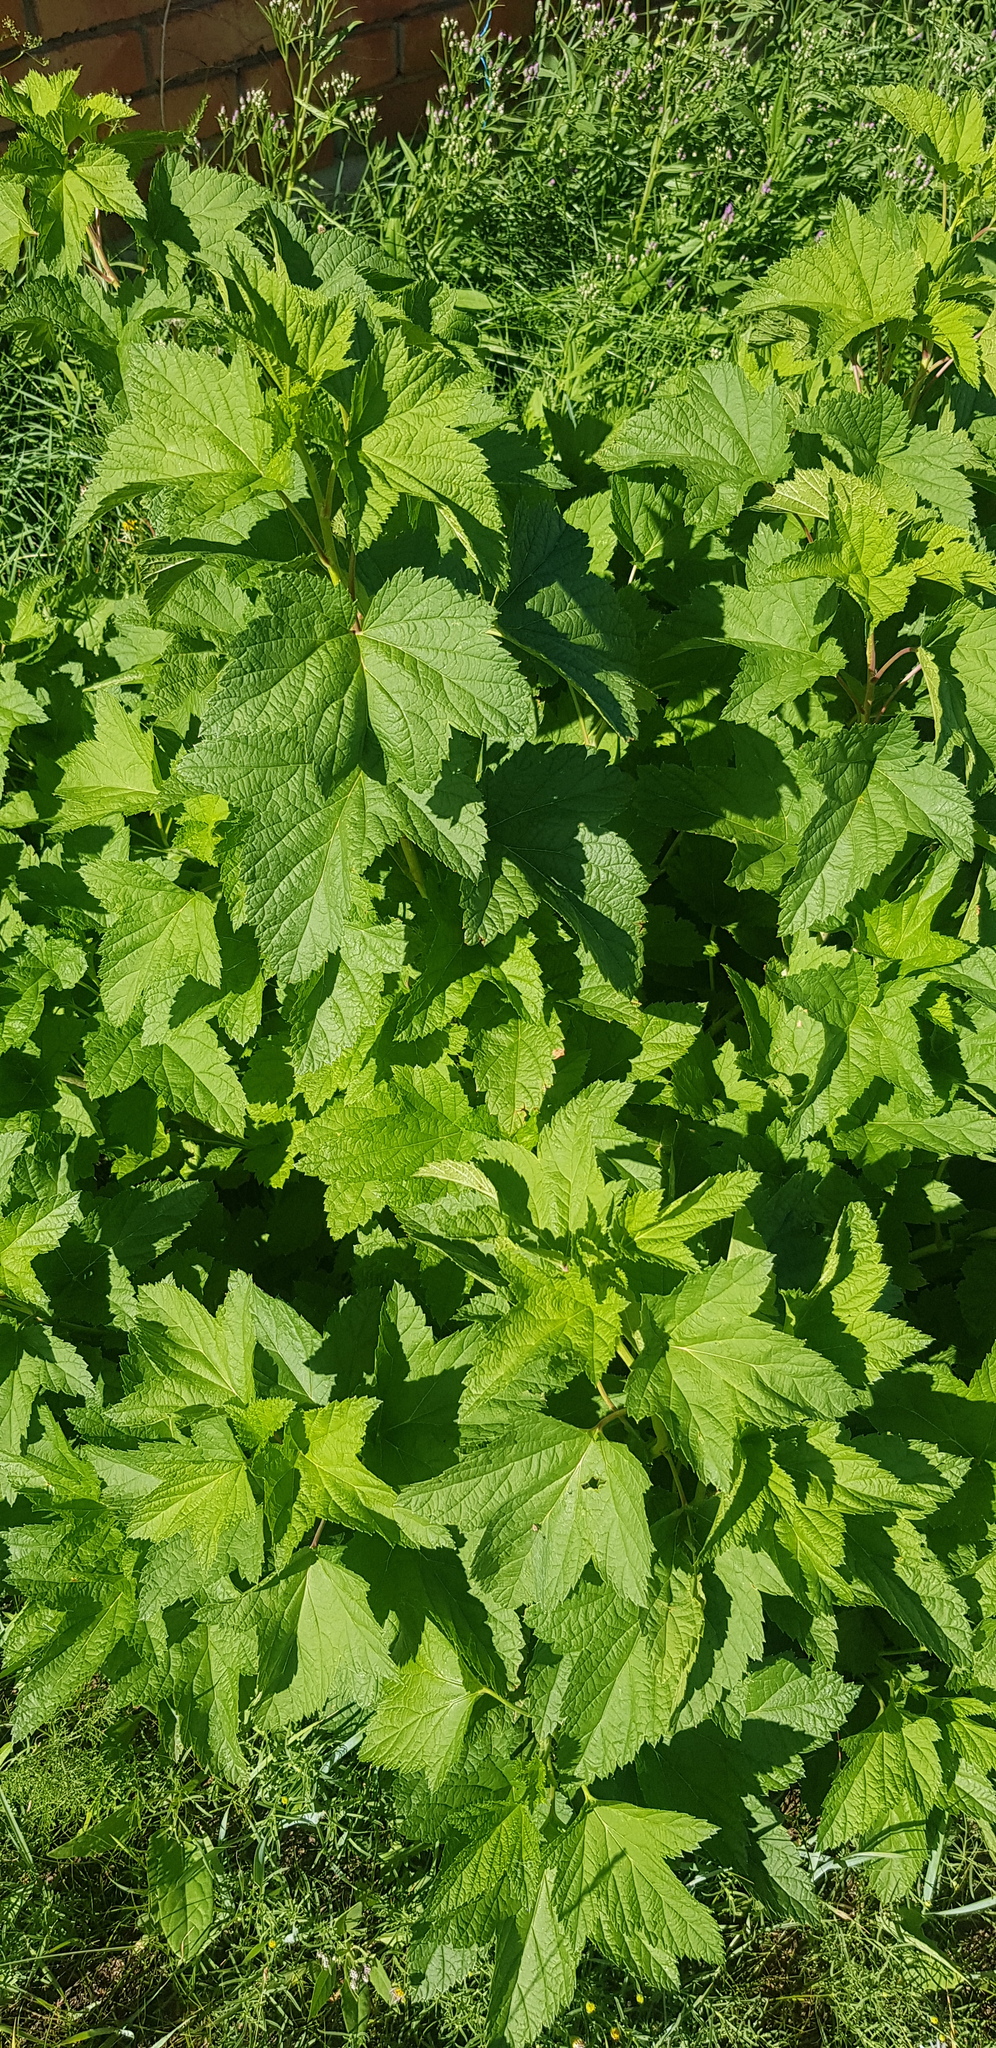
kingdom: Plantae
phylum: Tracheophyta
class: Magnoliopsida
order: Saxifragales
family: Grossulariaceae
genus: Ribes
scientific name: Ribes nigrum
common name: Black currant
